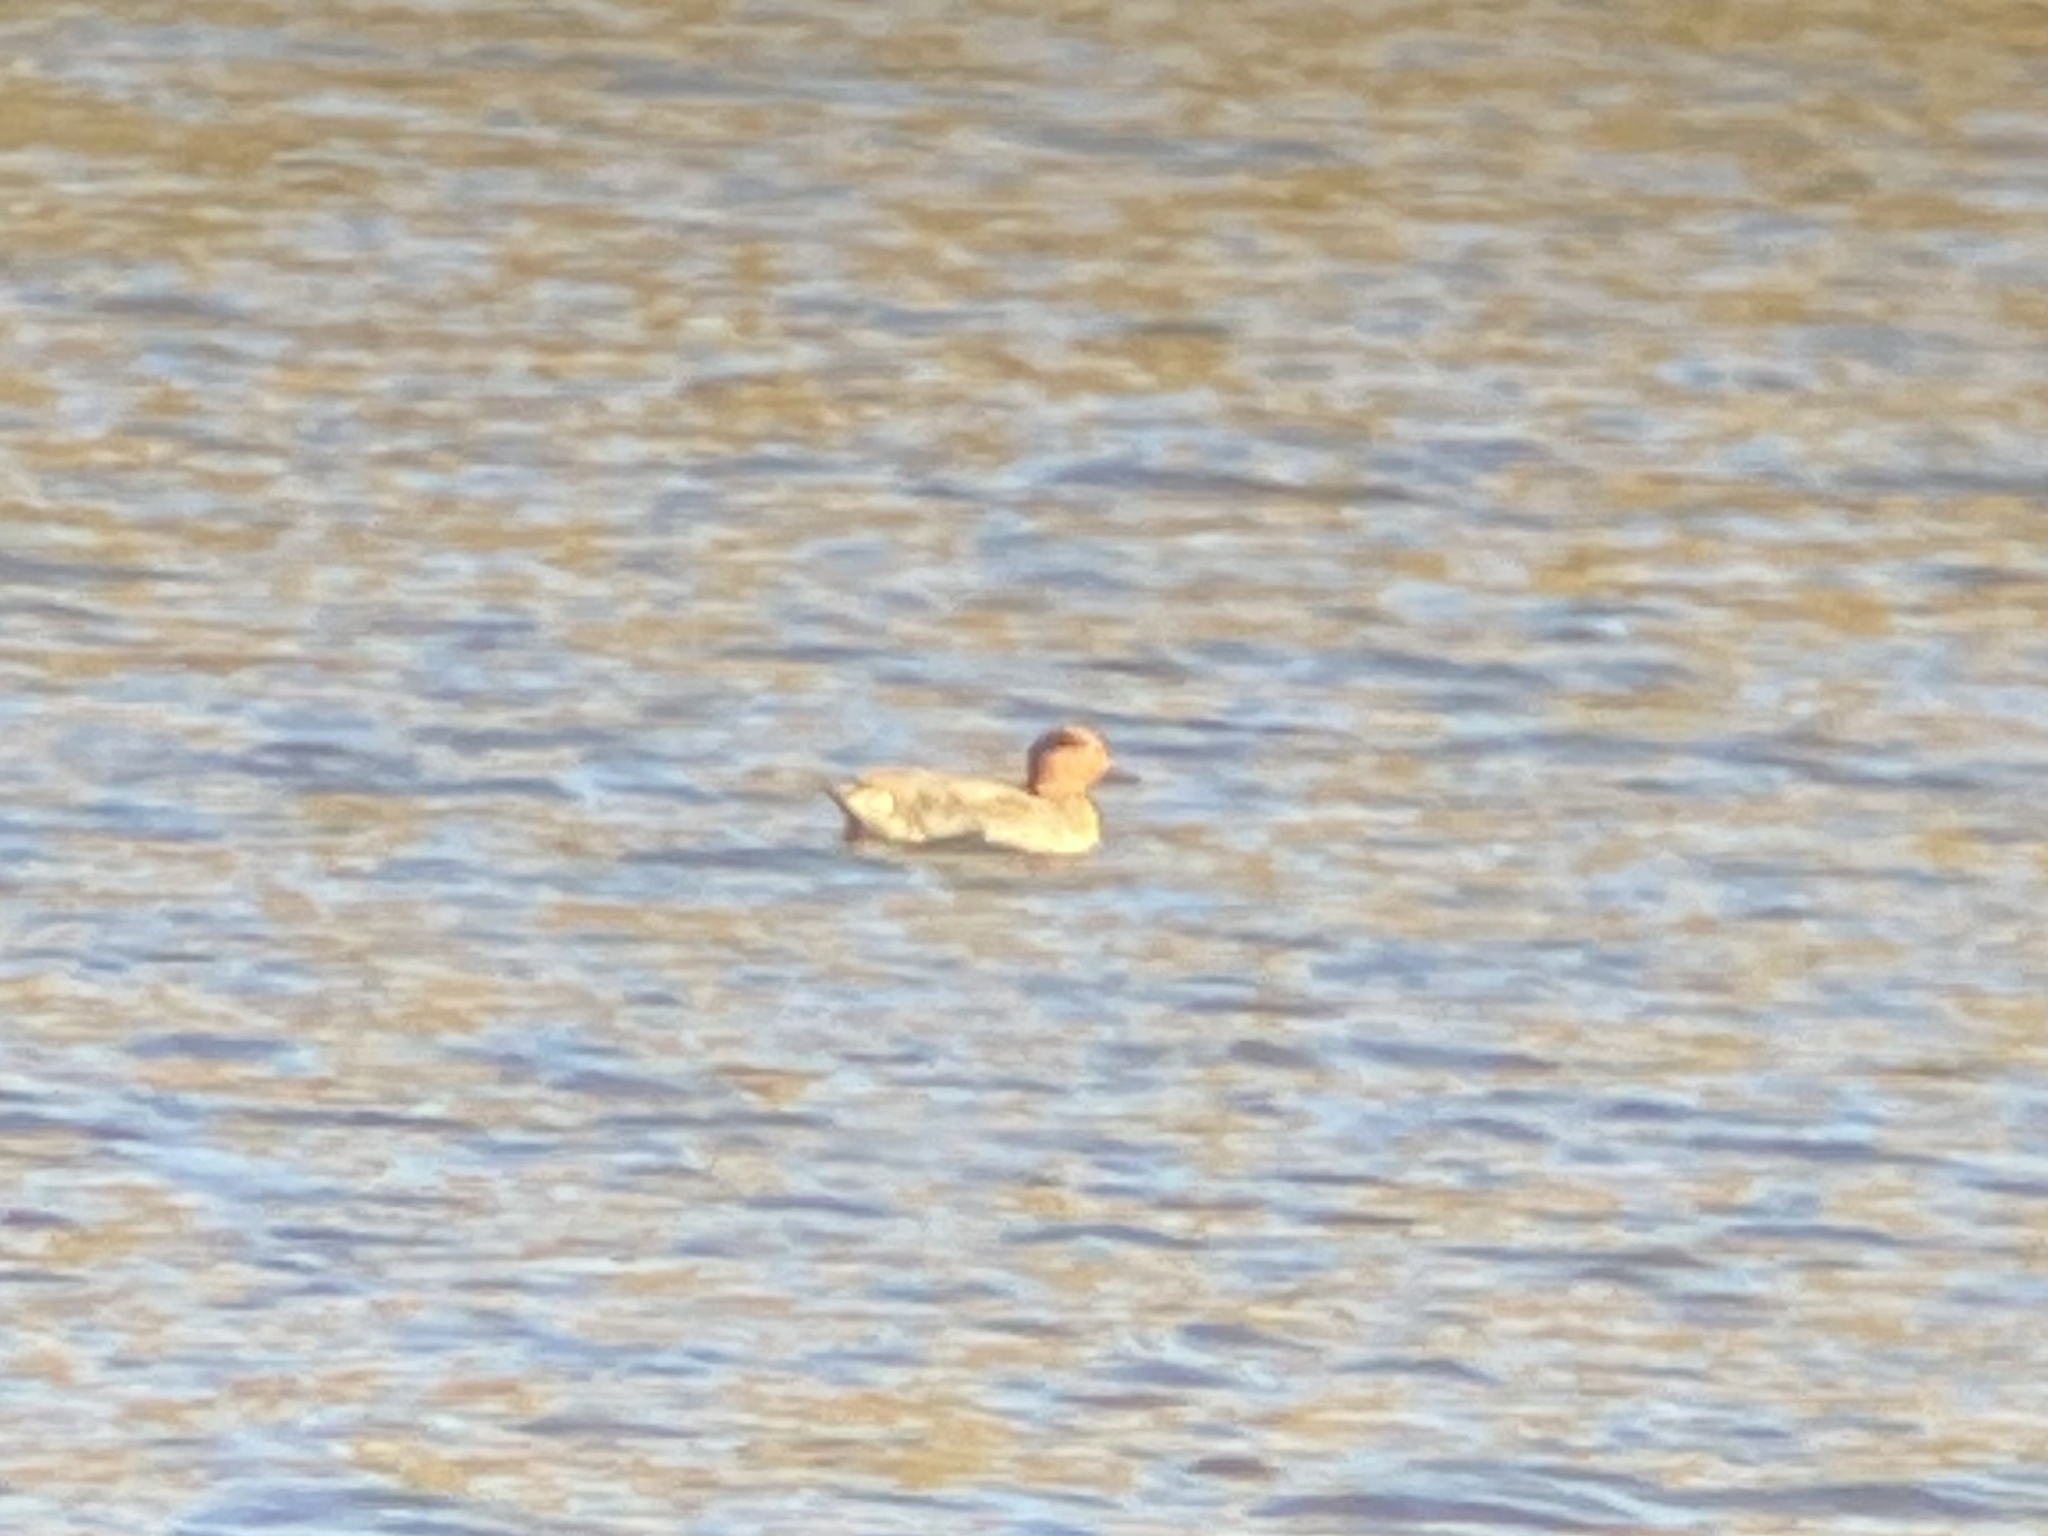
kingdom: Animalia
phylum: Chordata
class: Aves
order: Anseriformes
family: Anatidae
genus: Anas
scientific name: Anas carolinensis
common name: Green-winged teal
